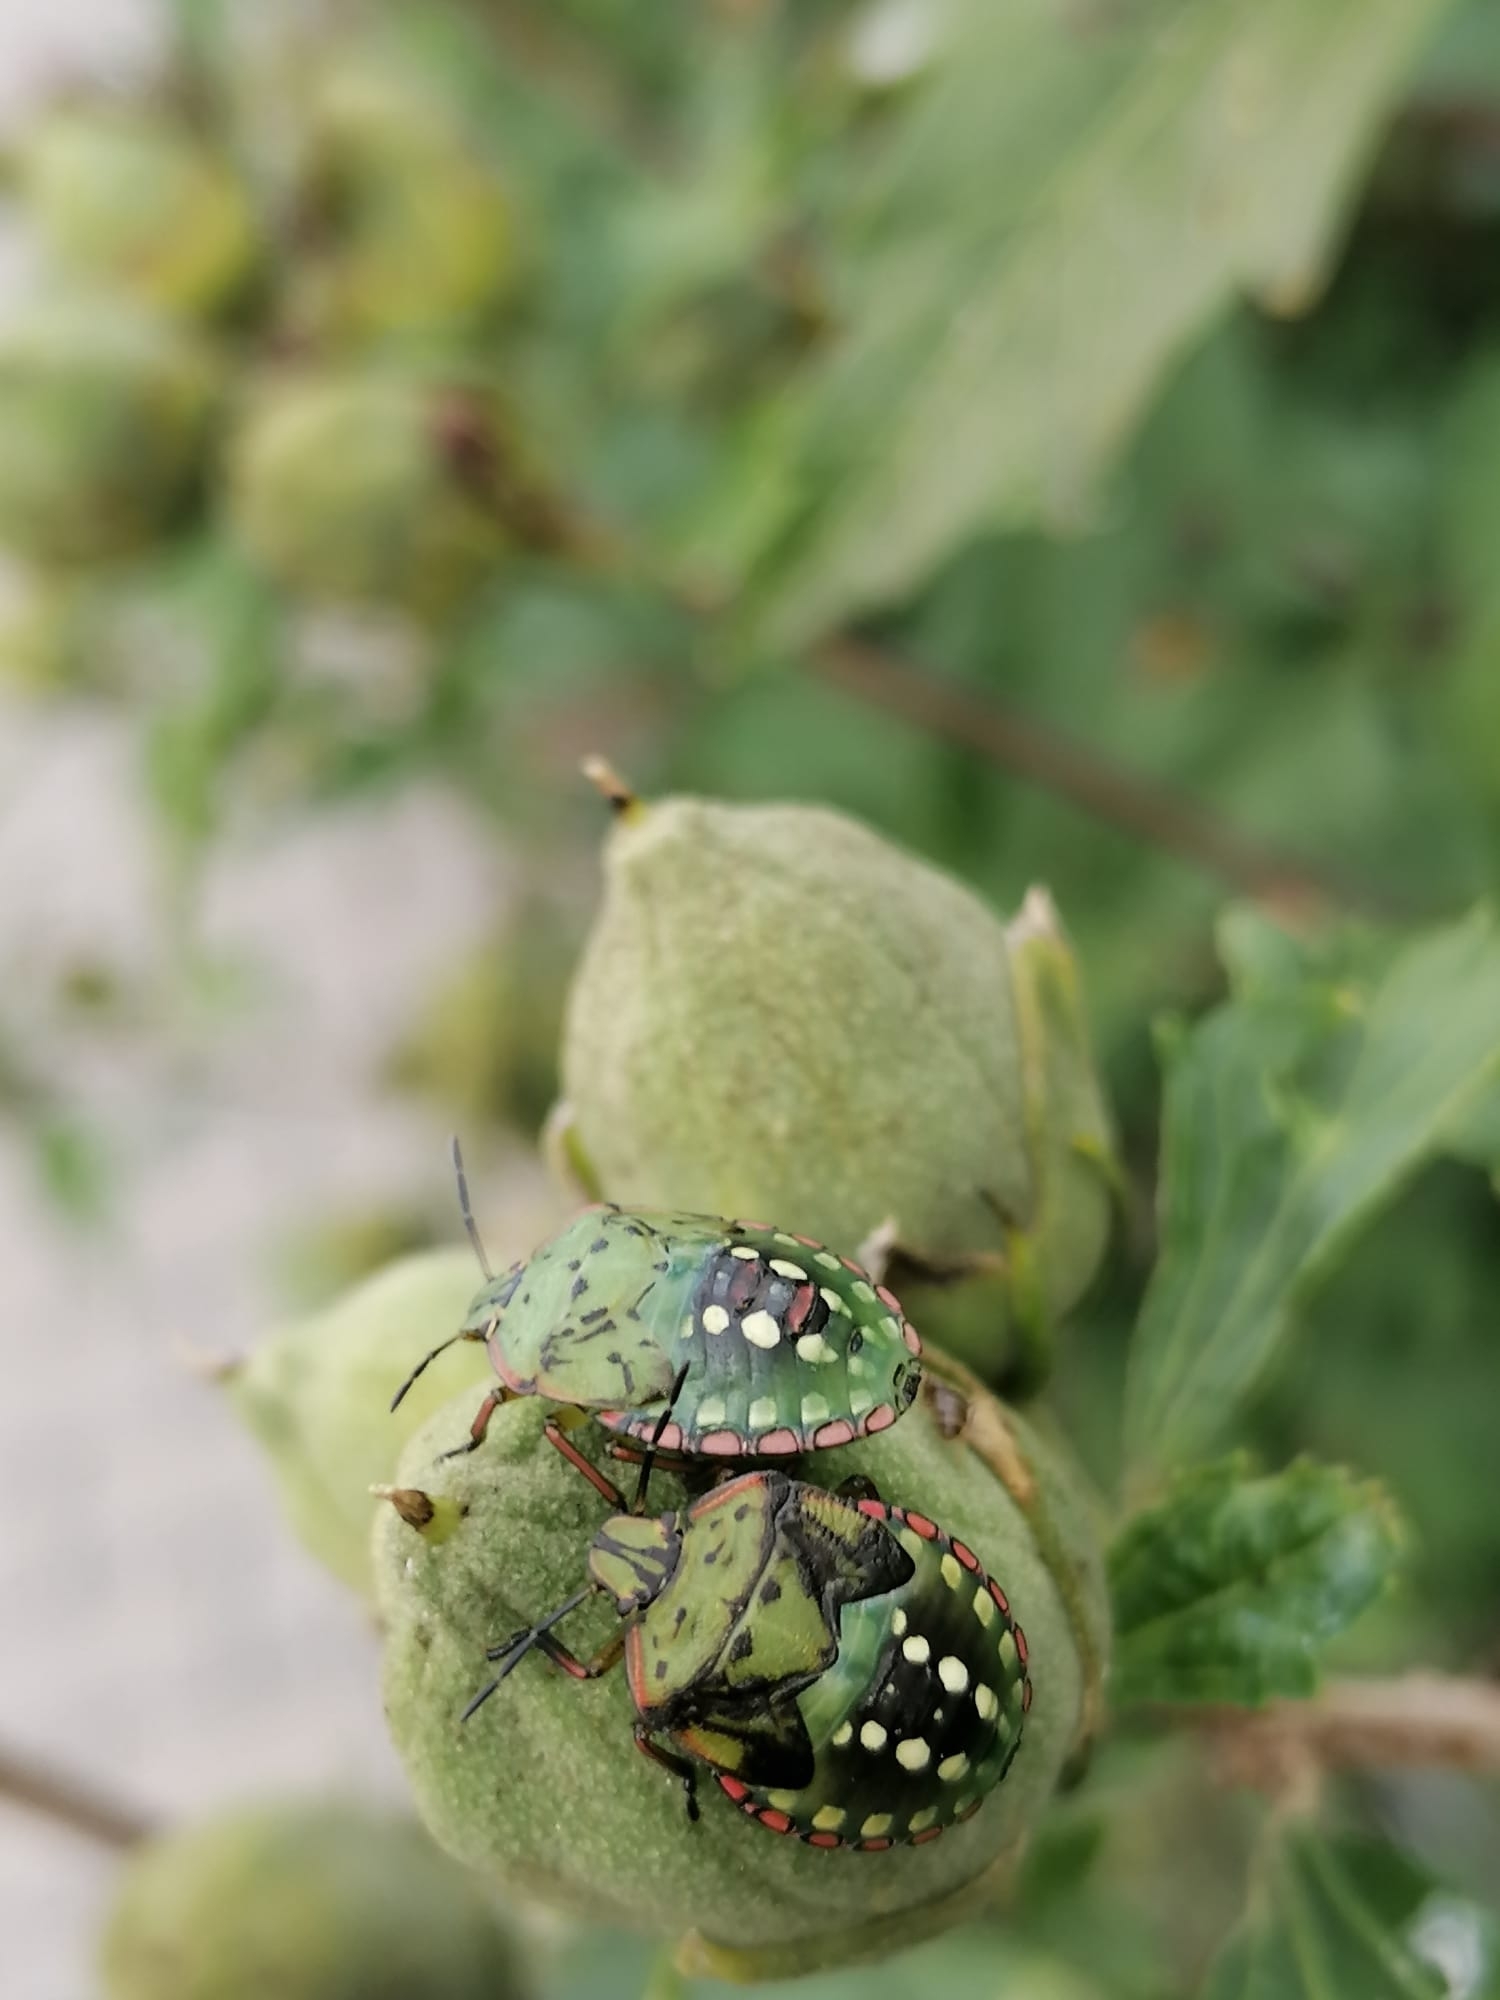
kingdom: Animalia
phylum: Arthropoda
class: Insecta
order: Hemiptera
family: Pentatomidae
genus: Nezara
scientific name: Nezara viridula
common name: Southern green stink bug
